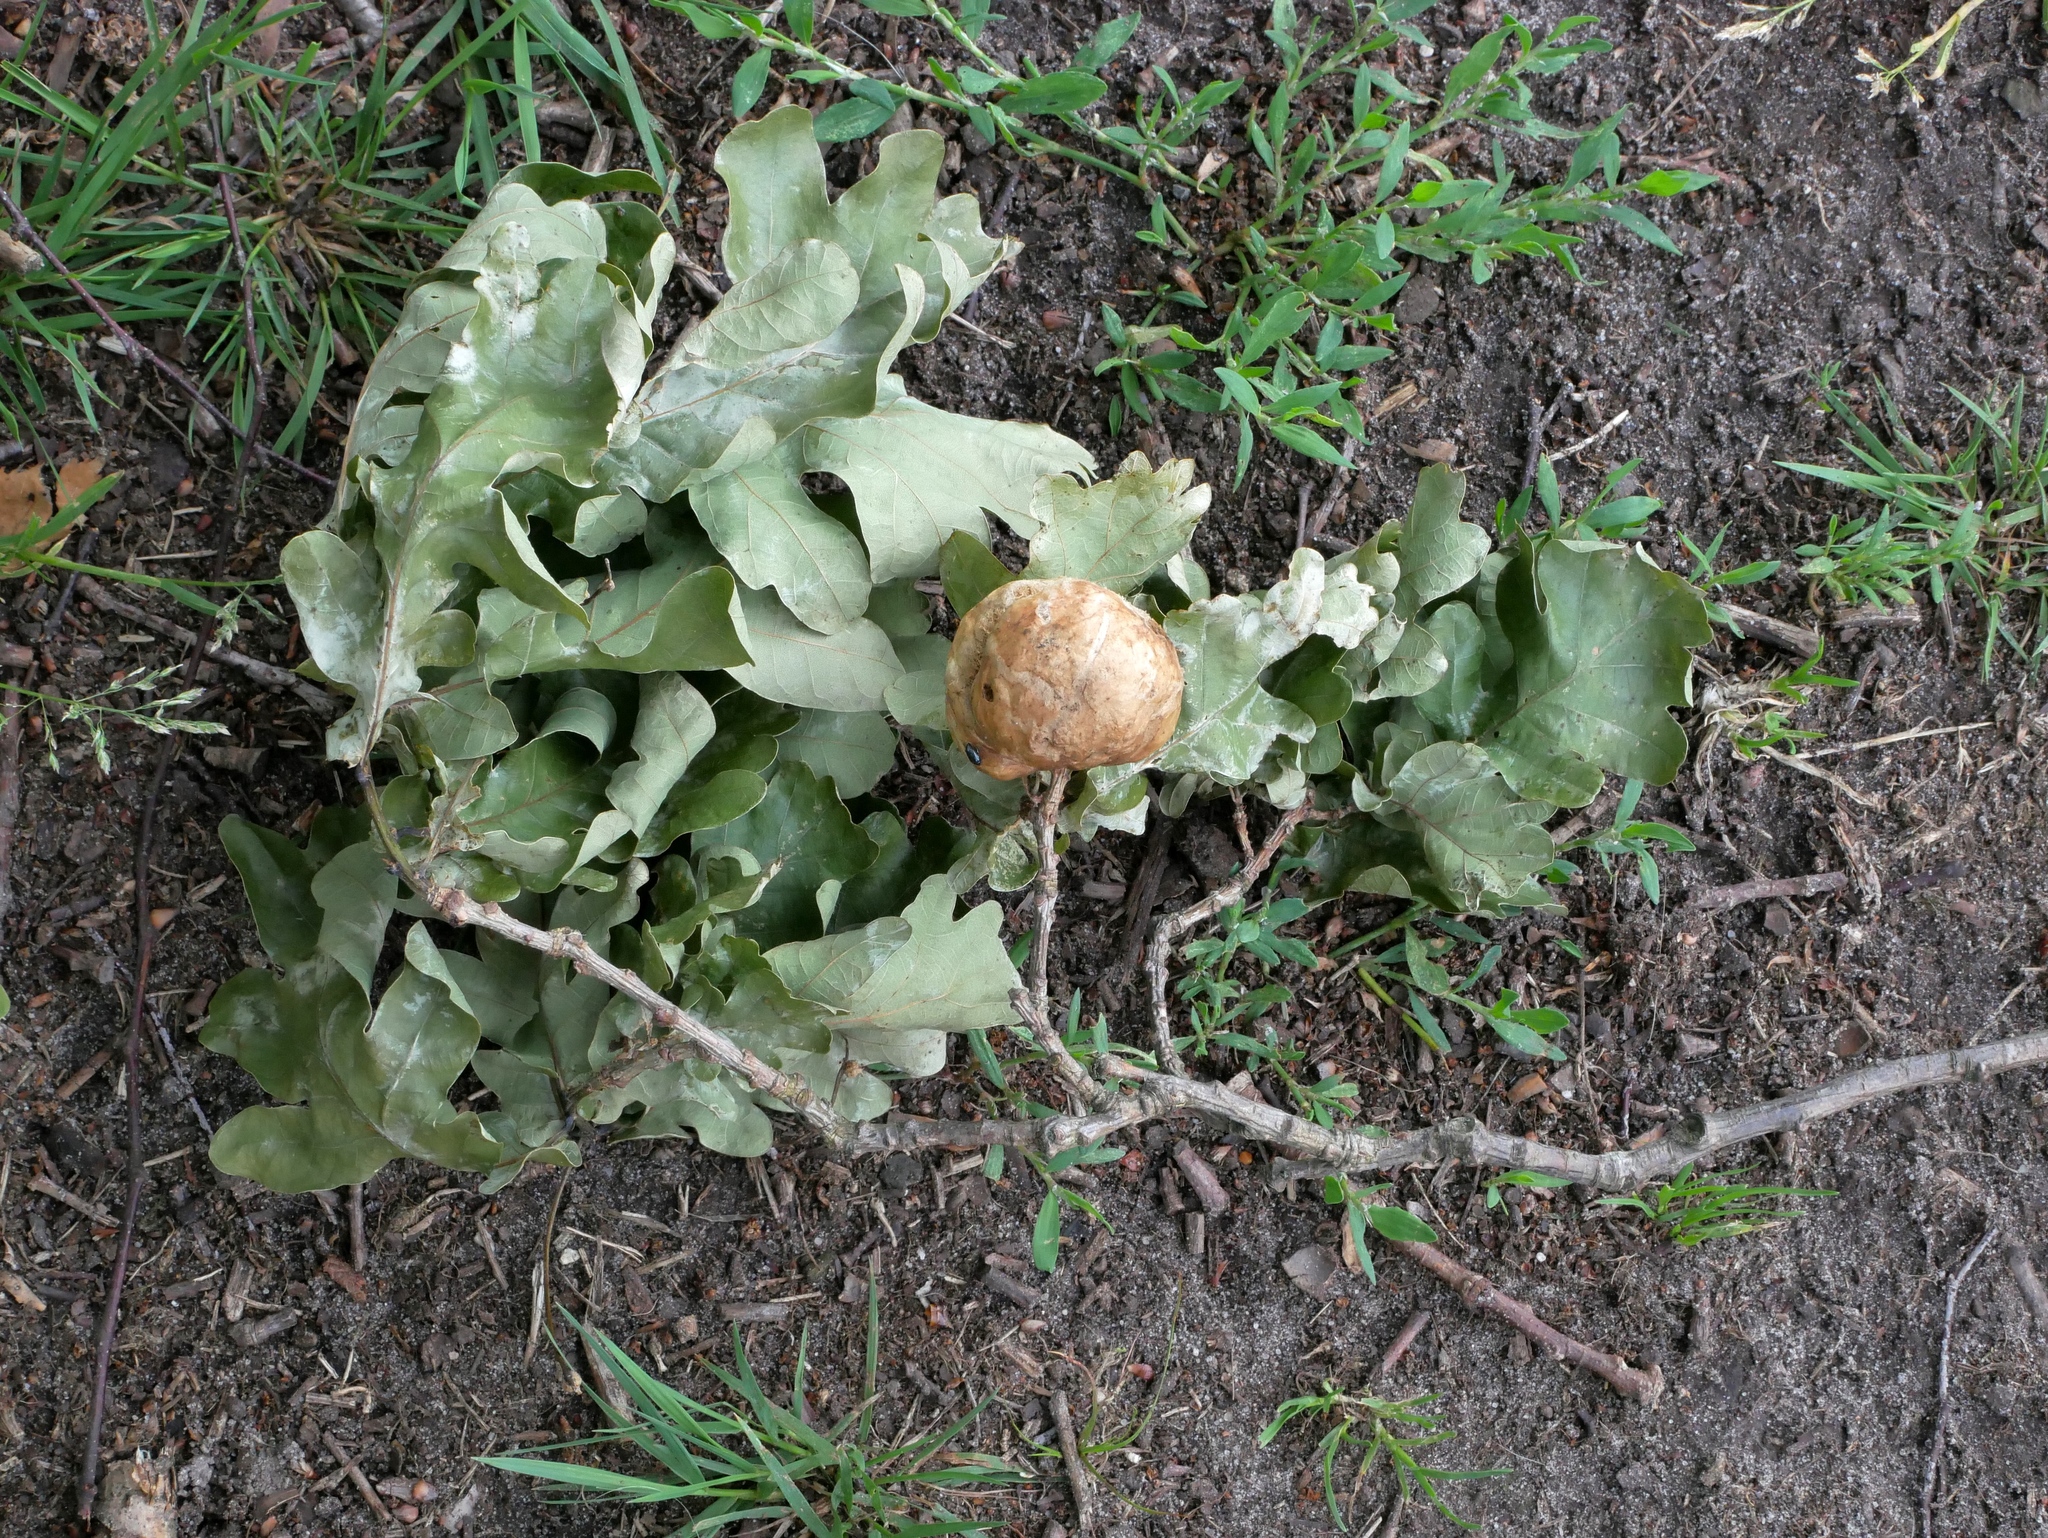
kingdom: Animalia
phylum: Arthropoda
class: Insecta
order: Hymenoptera
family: Cynipidae
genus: Biorhiza
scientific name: Biorhiza pallida
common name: Oak apple
